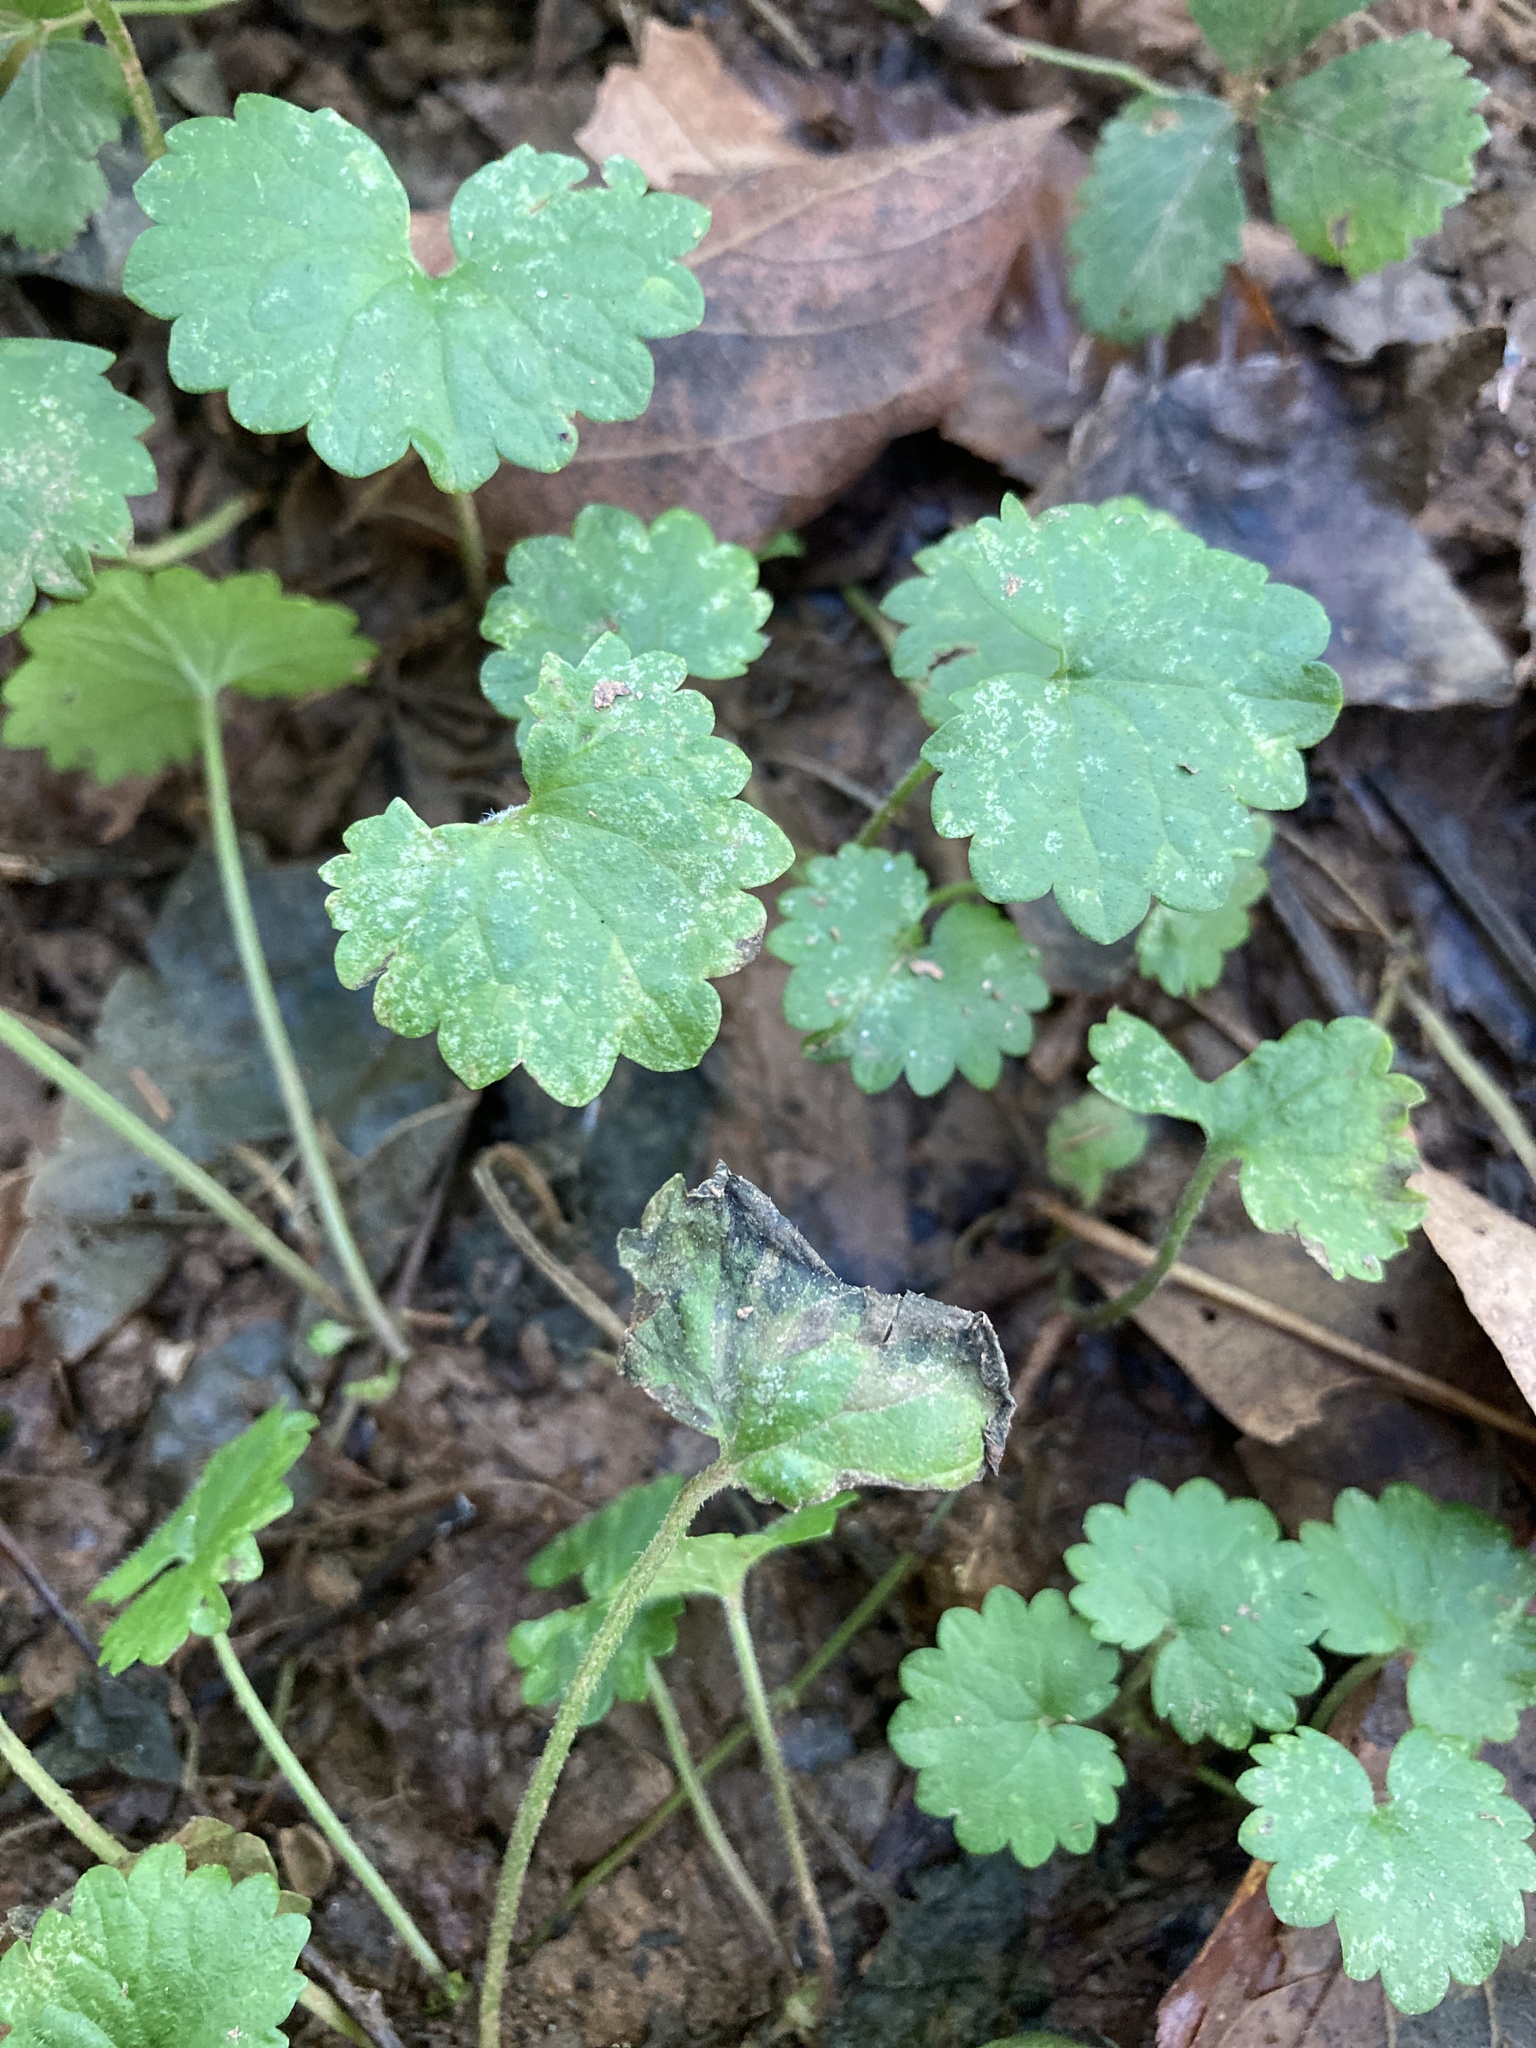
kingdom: Plantae
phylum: Tracheophyta
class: Magnoliopsida
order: Lamiales
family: Lamiaceae
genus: Glechoma
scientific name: Glechoma hederacea
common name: Ground ivy
